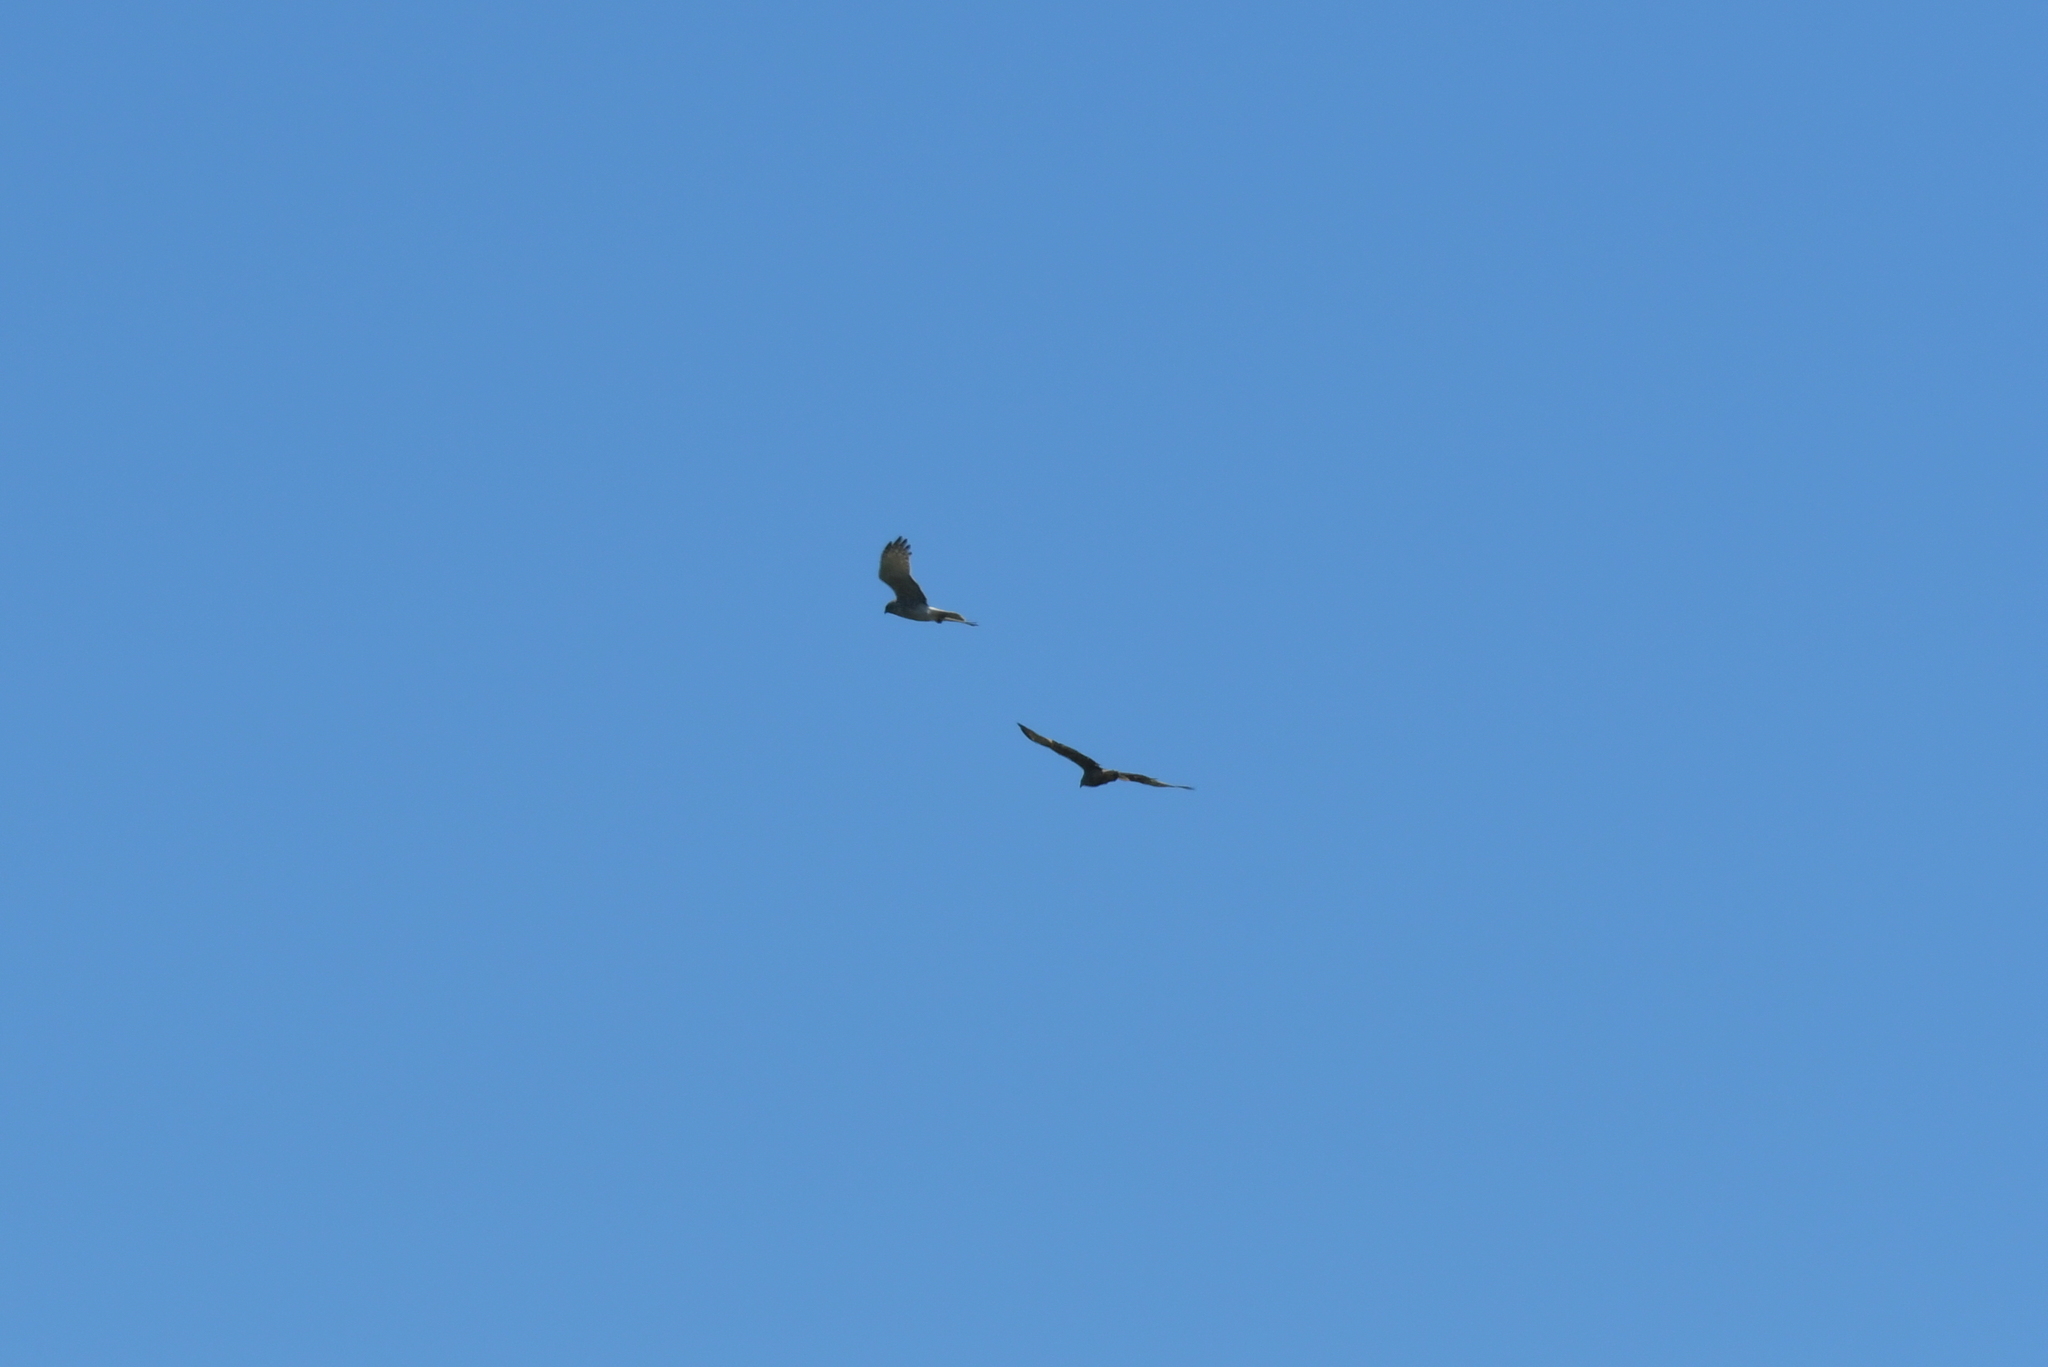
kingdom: Animalia
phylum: Chordata
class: Aves
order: Accipitriformes
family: Accipitridae
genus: Circus
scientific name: Circus approximans
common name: Swamp harrier
